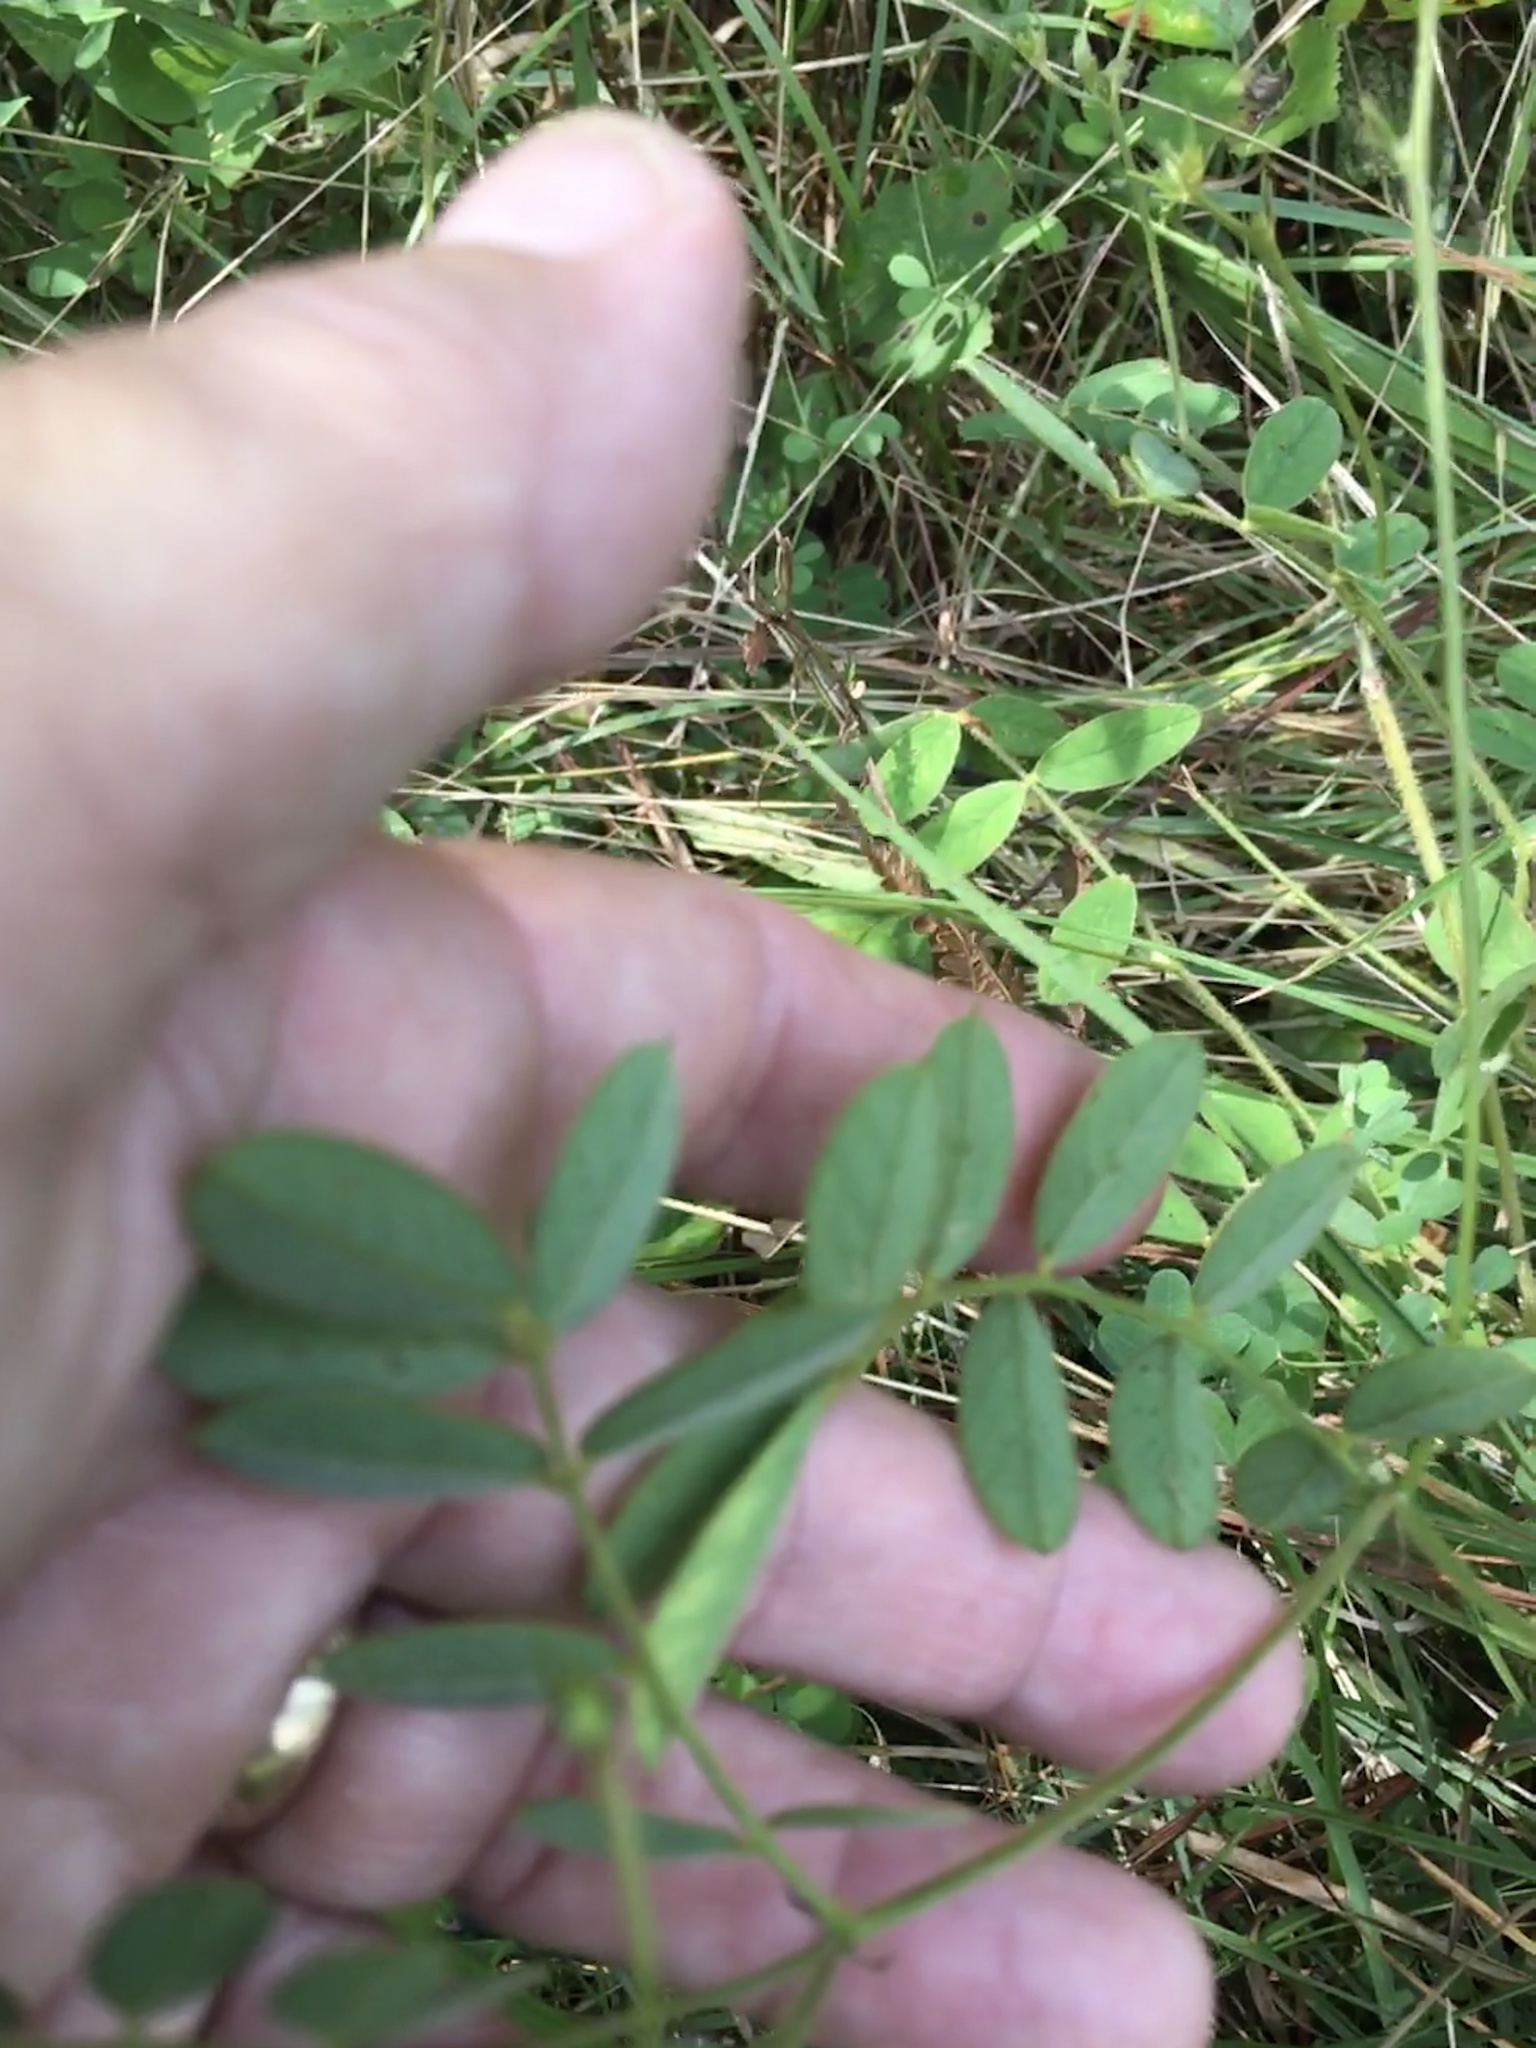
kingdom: Plantae
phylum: Tracheophyta
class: Magnoliopsida
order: Fabales
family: Fabaceae
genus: Tephrosia
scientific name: Tephrosia spicata
